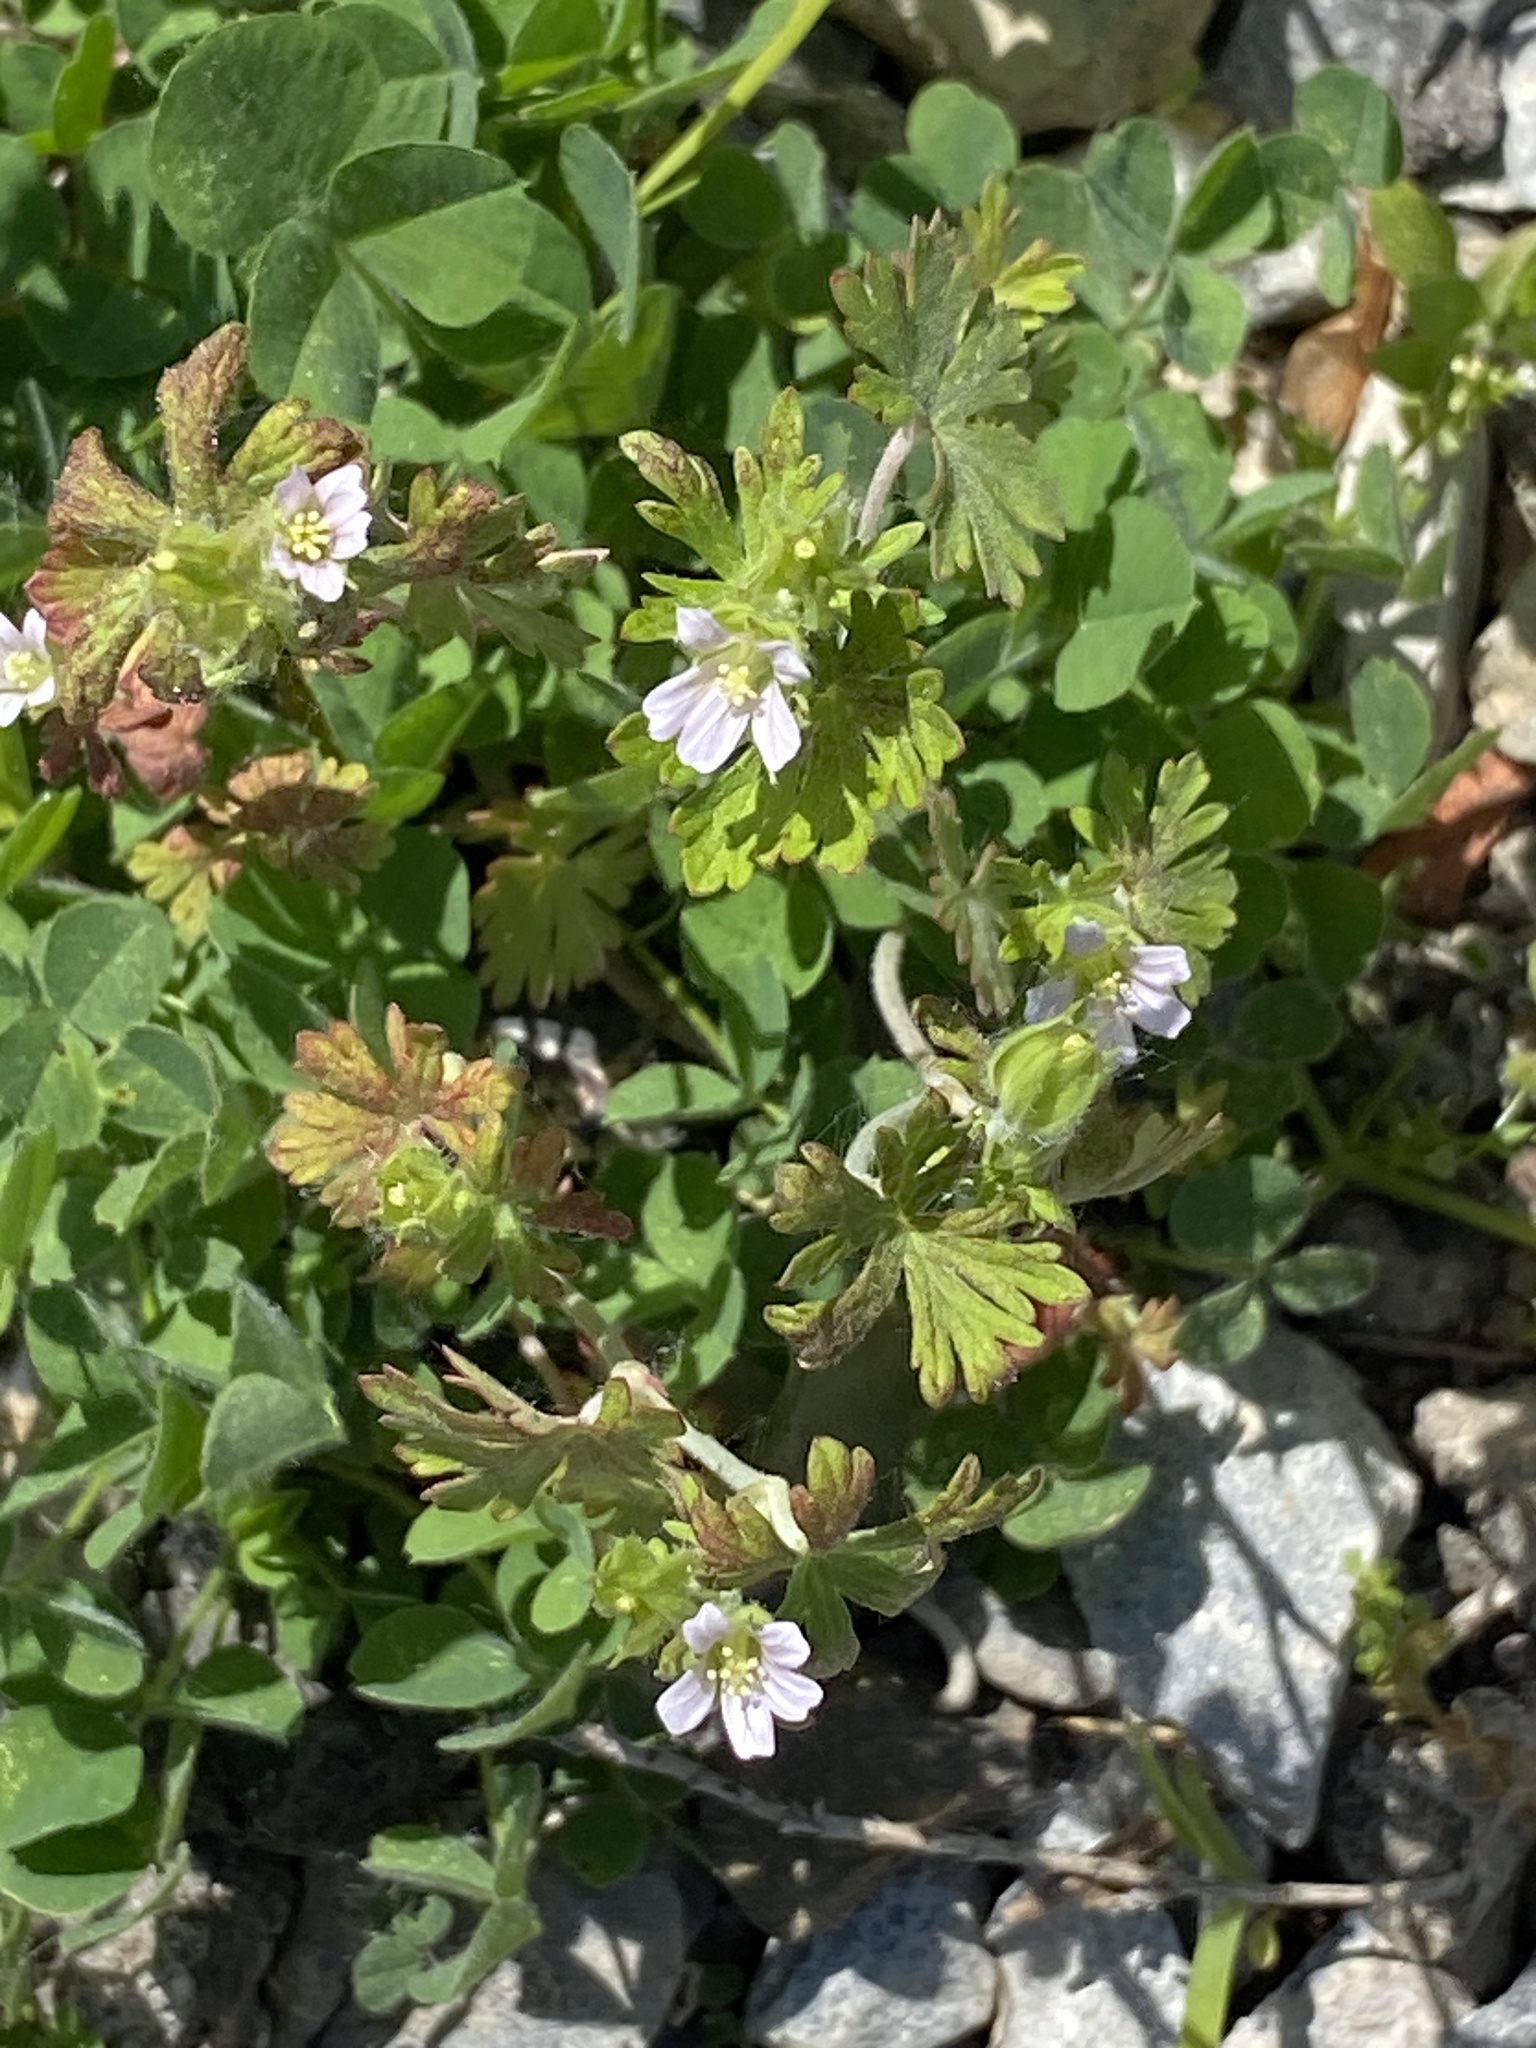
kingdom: Plantae
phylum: Tracheophyta
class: Magnoliopsida
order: Geraniales
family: Geraniaceae
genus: Geranium
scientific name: Geranium carolinianum
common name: Carolina crane's-bill
